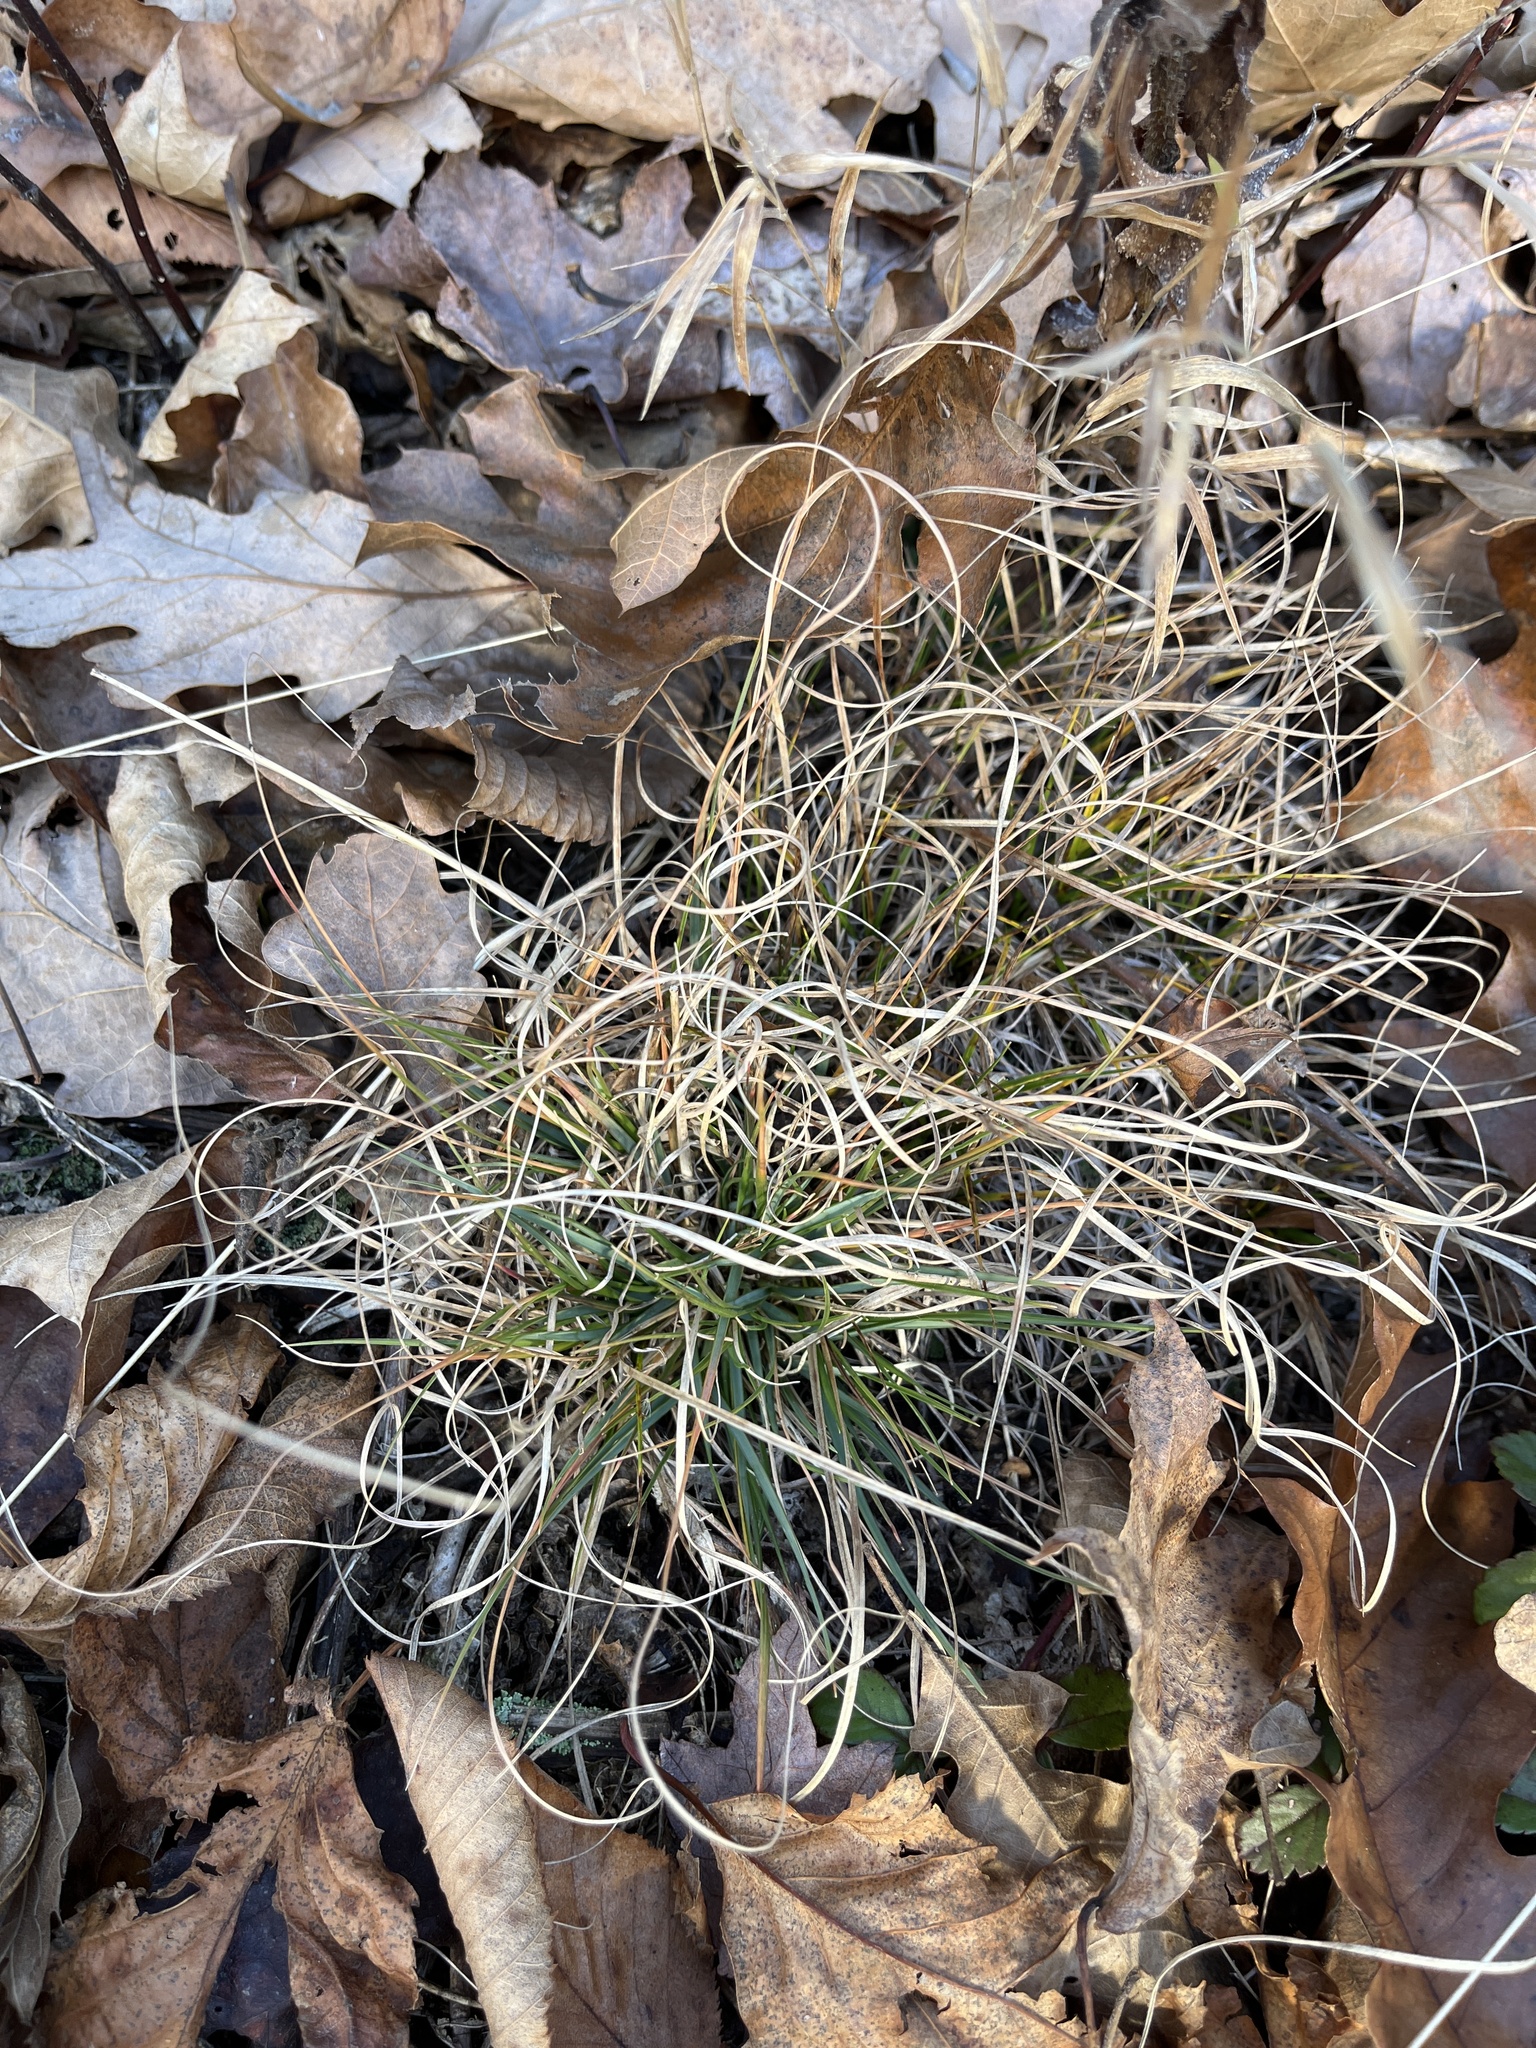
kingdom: Plantae
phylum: Tracheophyta
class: Liliopsida
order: Poales
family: Poaceae
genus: Danthonia
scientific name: Danthonia spicata
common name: Common wild oatgrass
